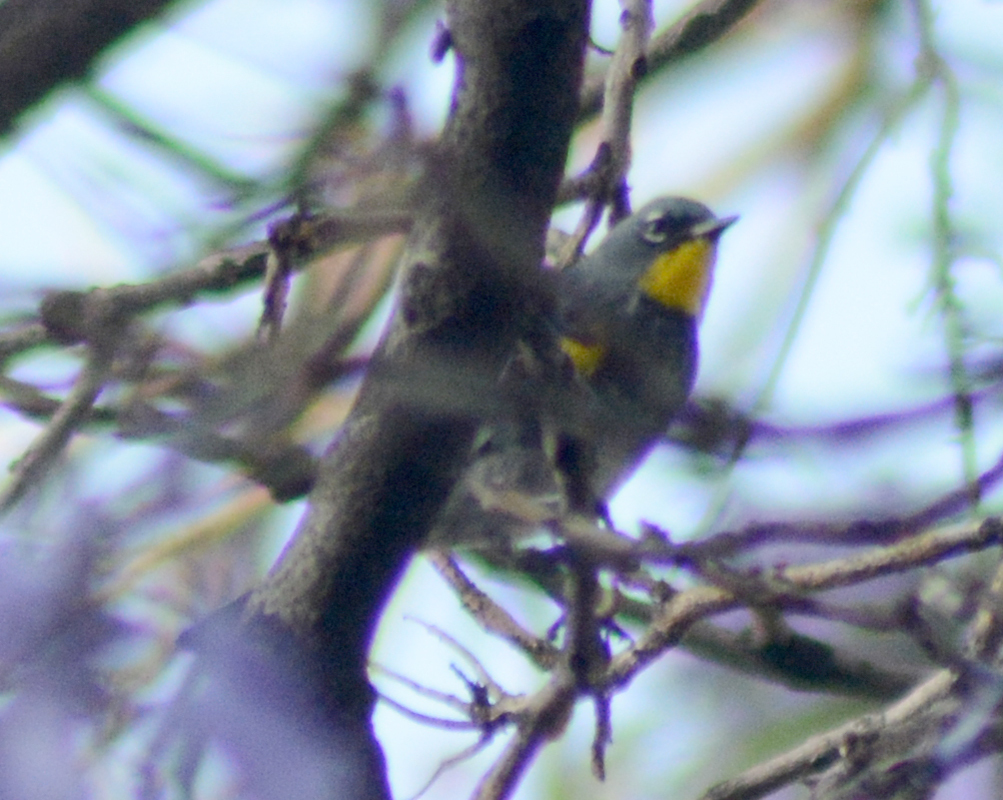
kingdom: Animalia
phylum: Chordata
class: Aves
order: Passeriformes
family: Parulidae
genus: Setophaga
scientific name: Setophaga coronata
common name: Myrtle warbler
